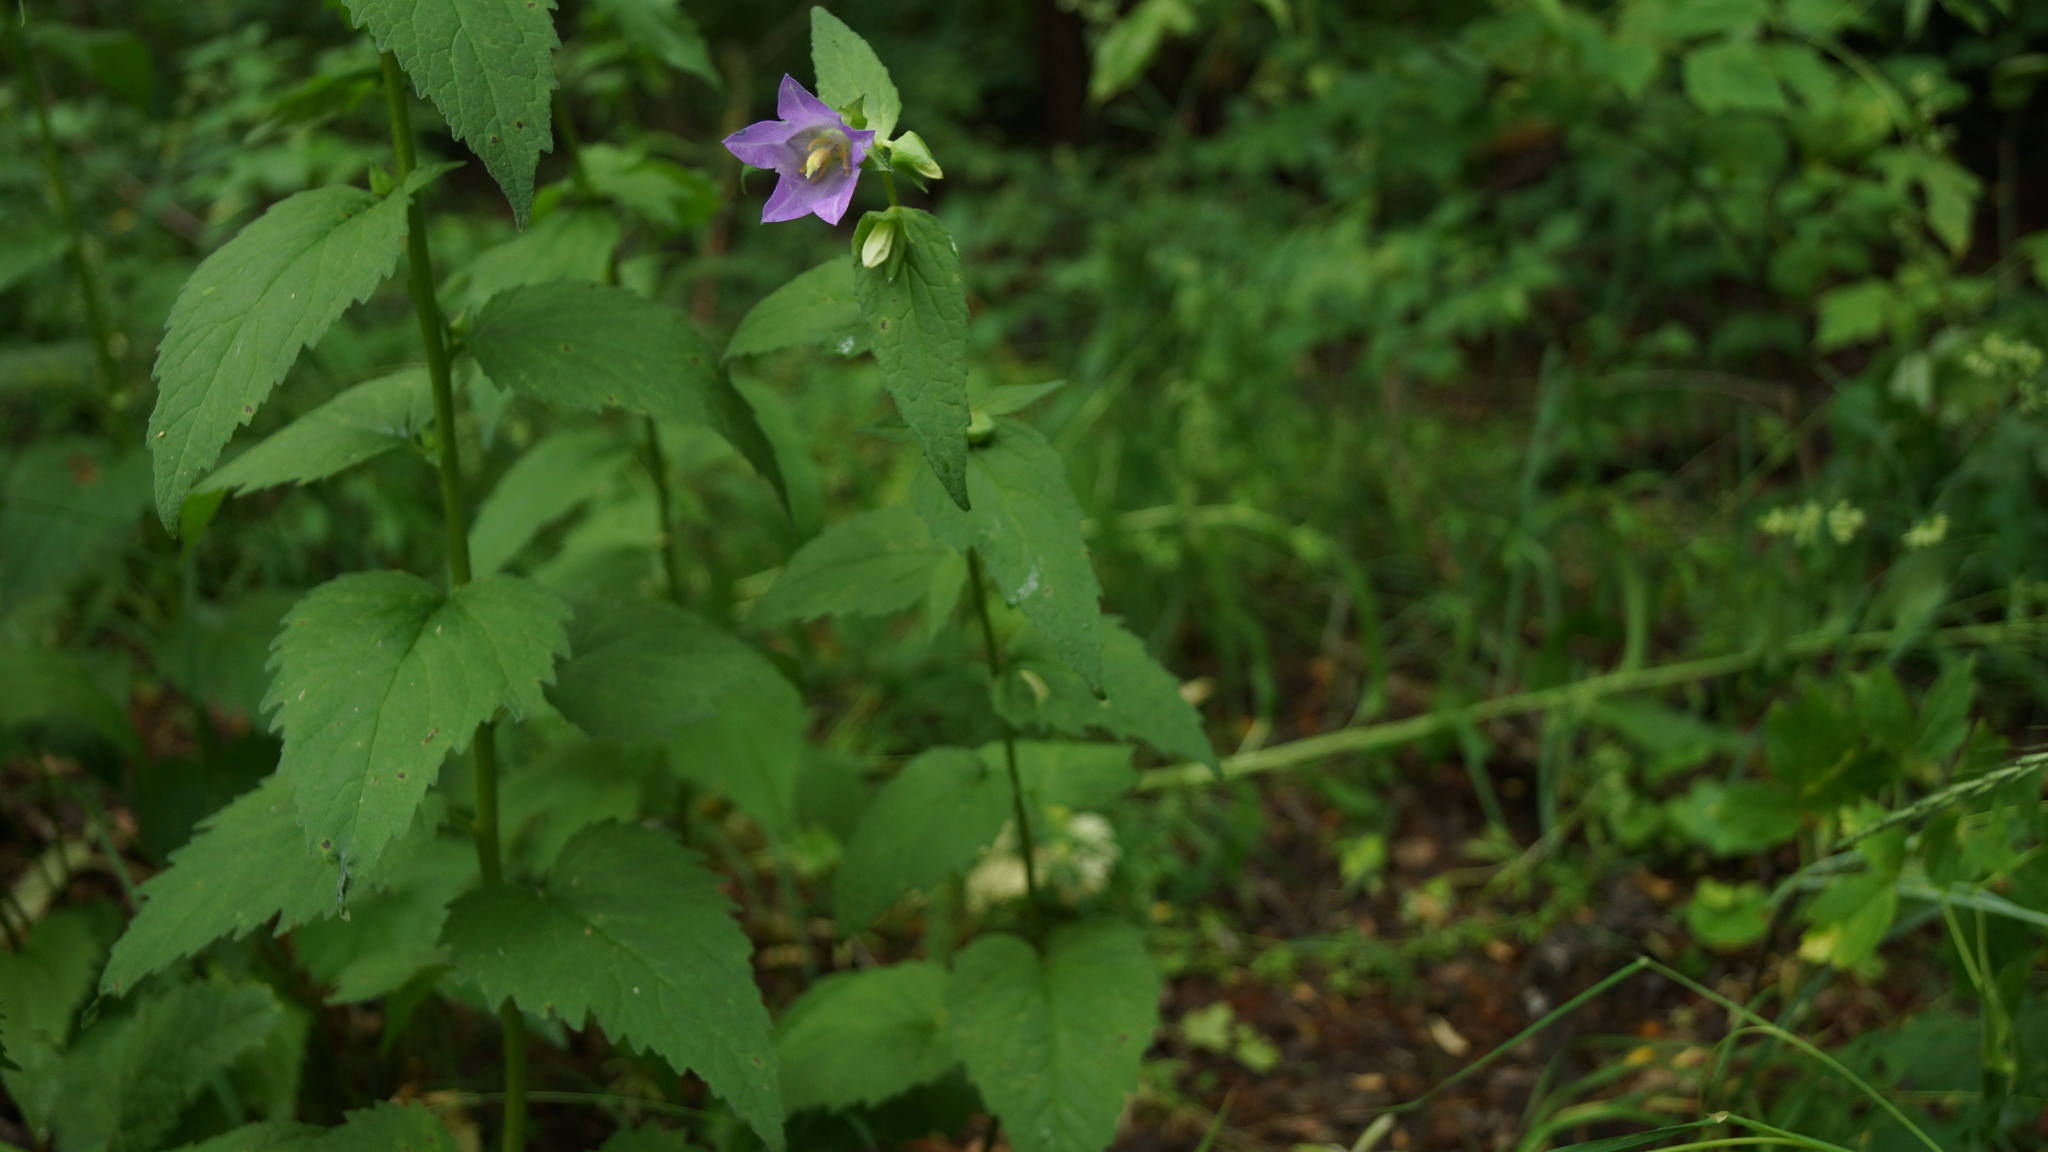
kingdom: Plantae
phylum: Tracheophyta
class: Magnoliopsida
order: Asterales
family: Campanulaceae
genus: Campanula
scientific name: Campanula trachelium
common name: Nettle-leaved bellflower
